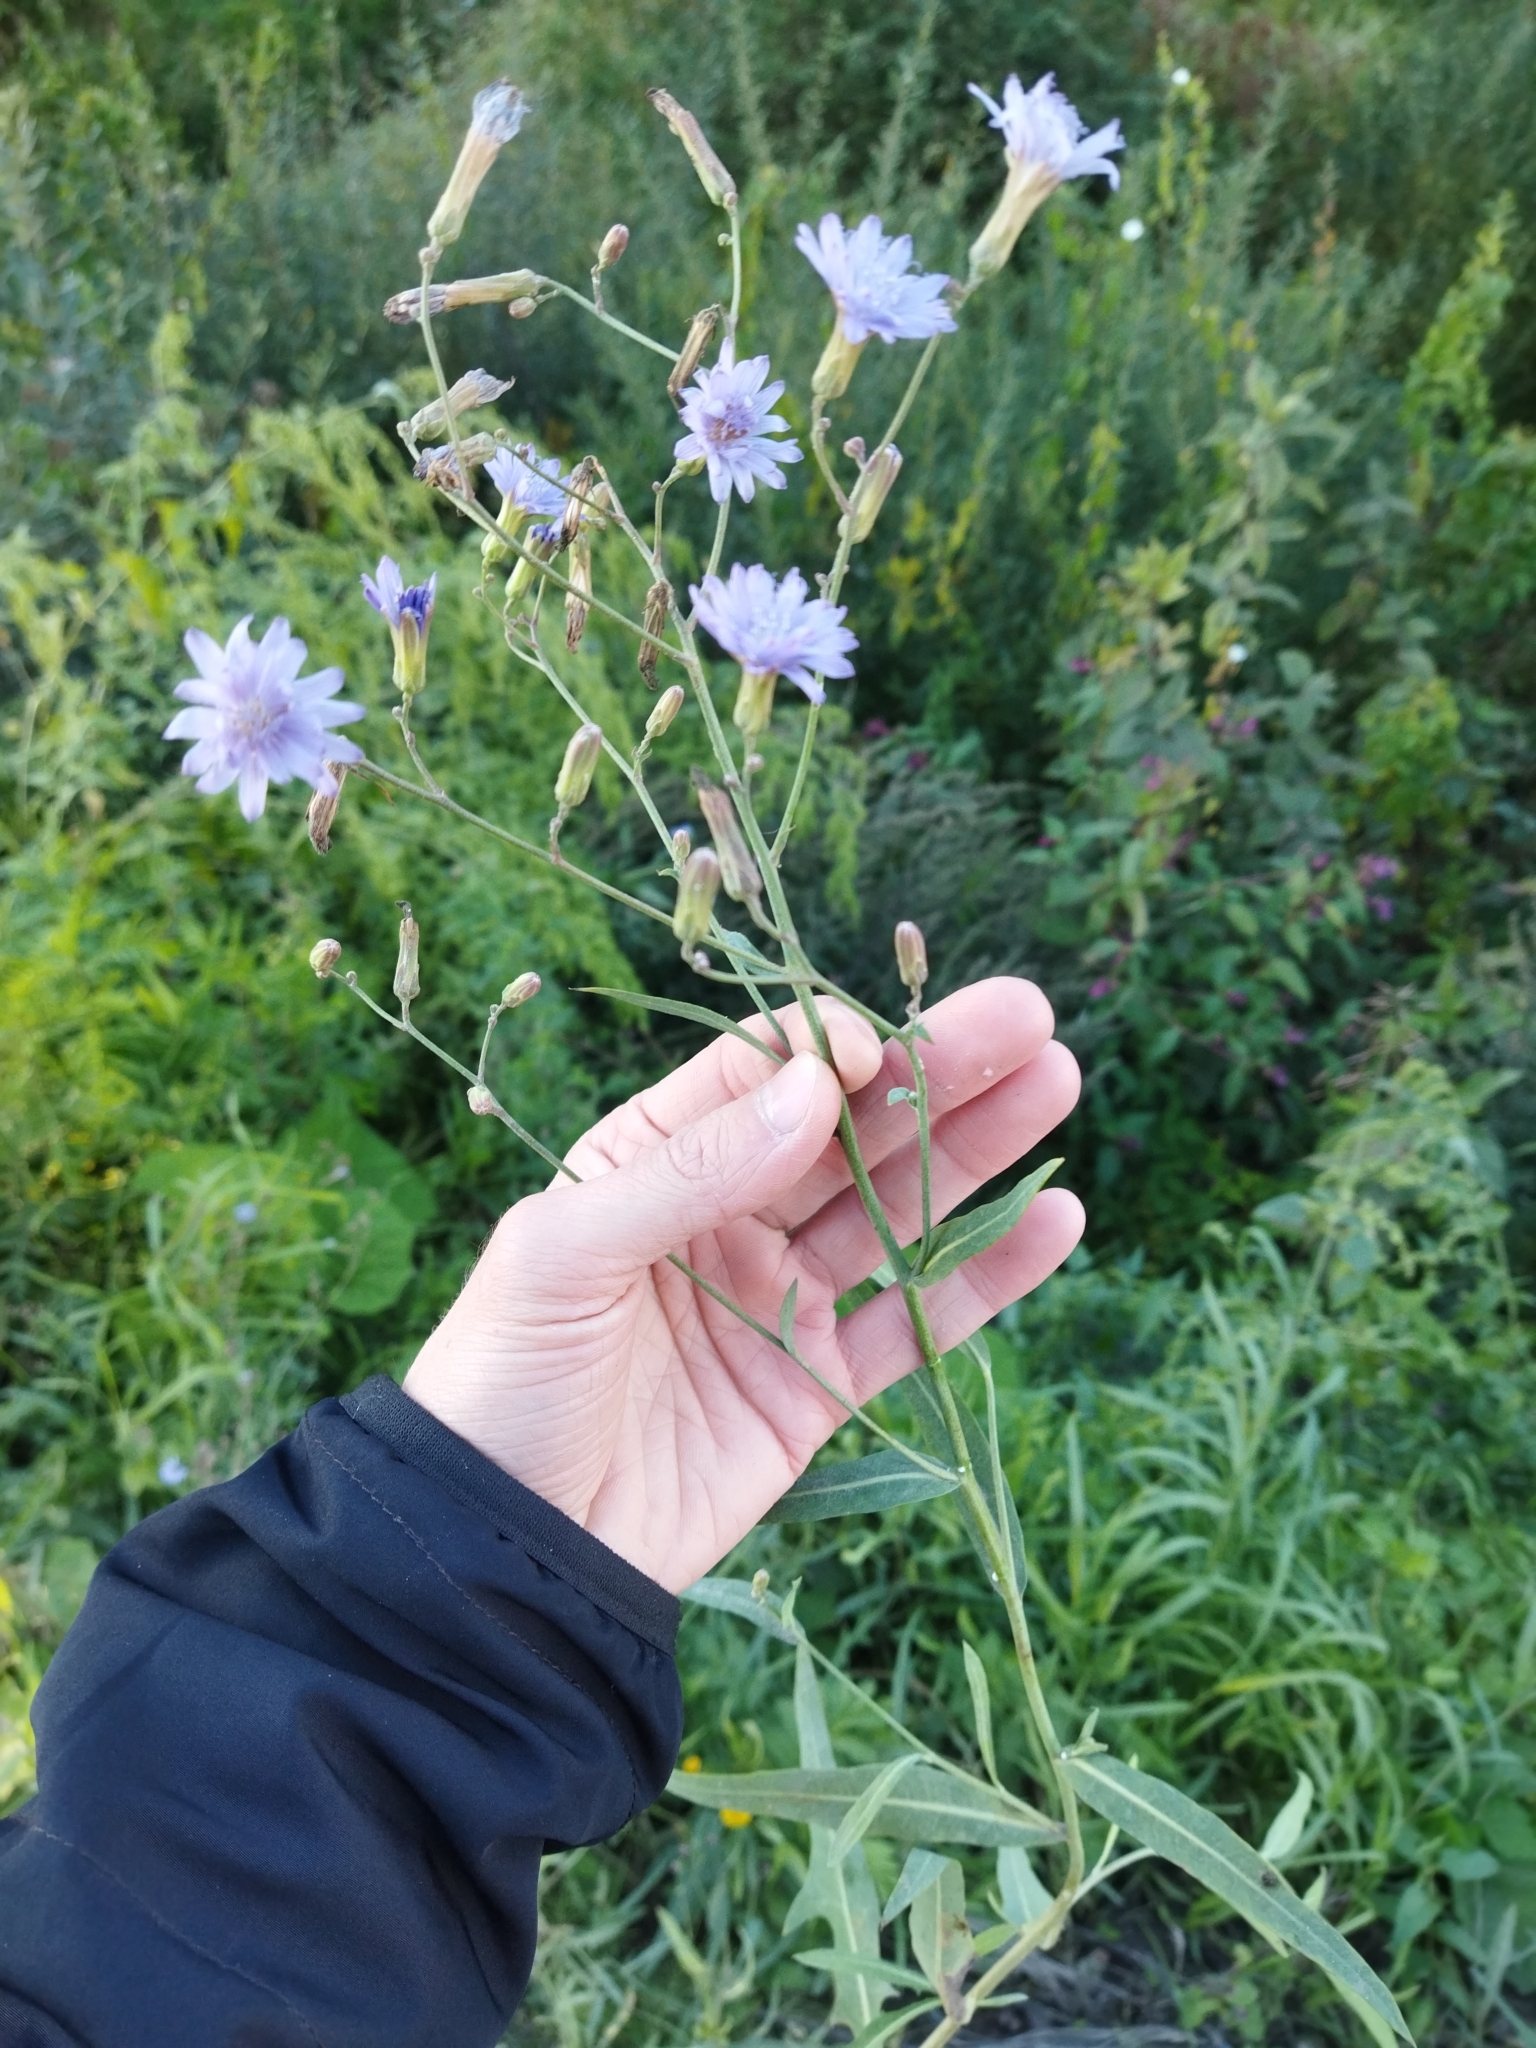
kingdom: Plantae
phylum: Tracheophyta
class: Magnoliopsida
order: Asterales
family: Asteraceae
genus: Lactuca
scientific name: Lactuca tatarica
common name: Blue lettuce
